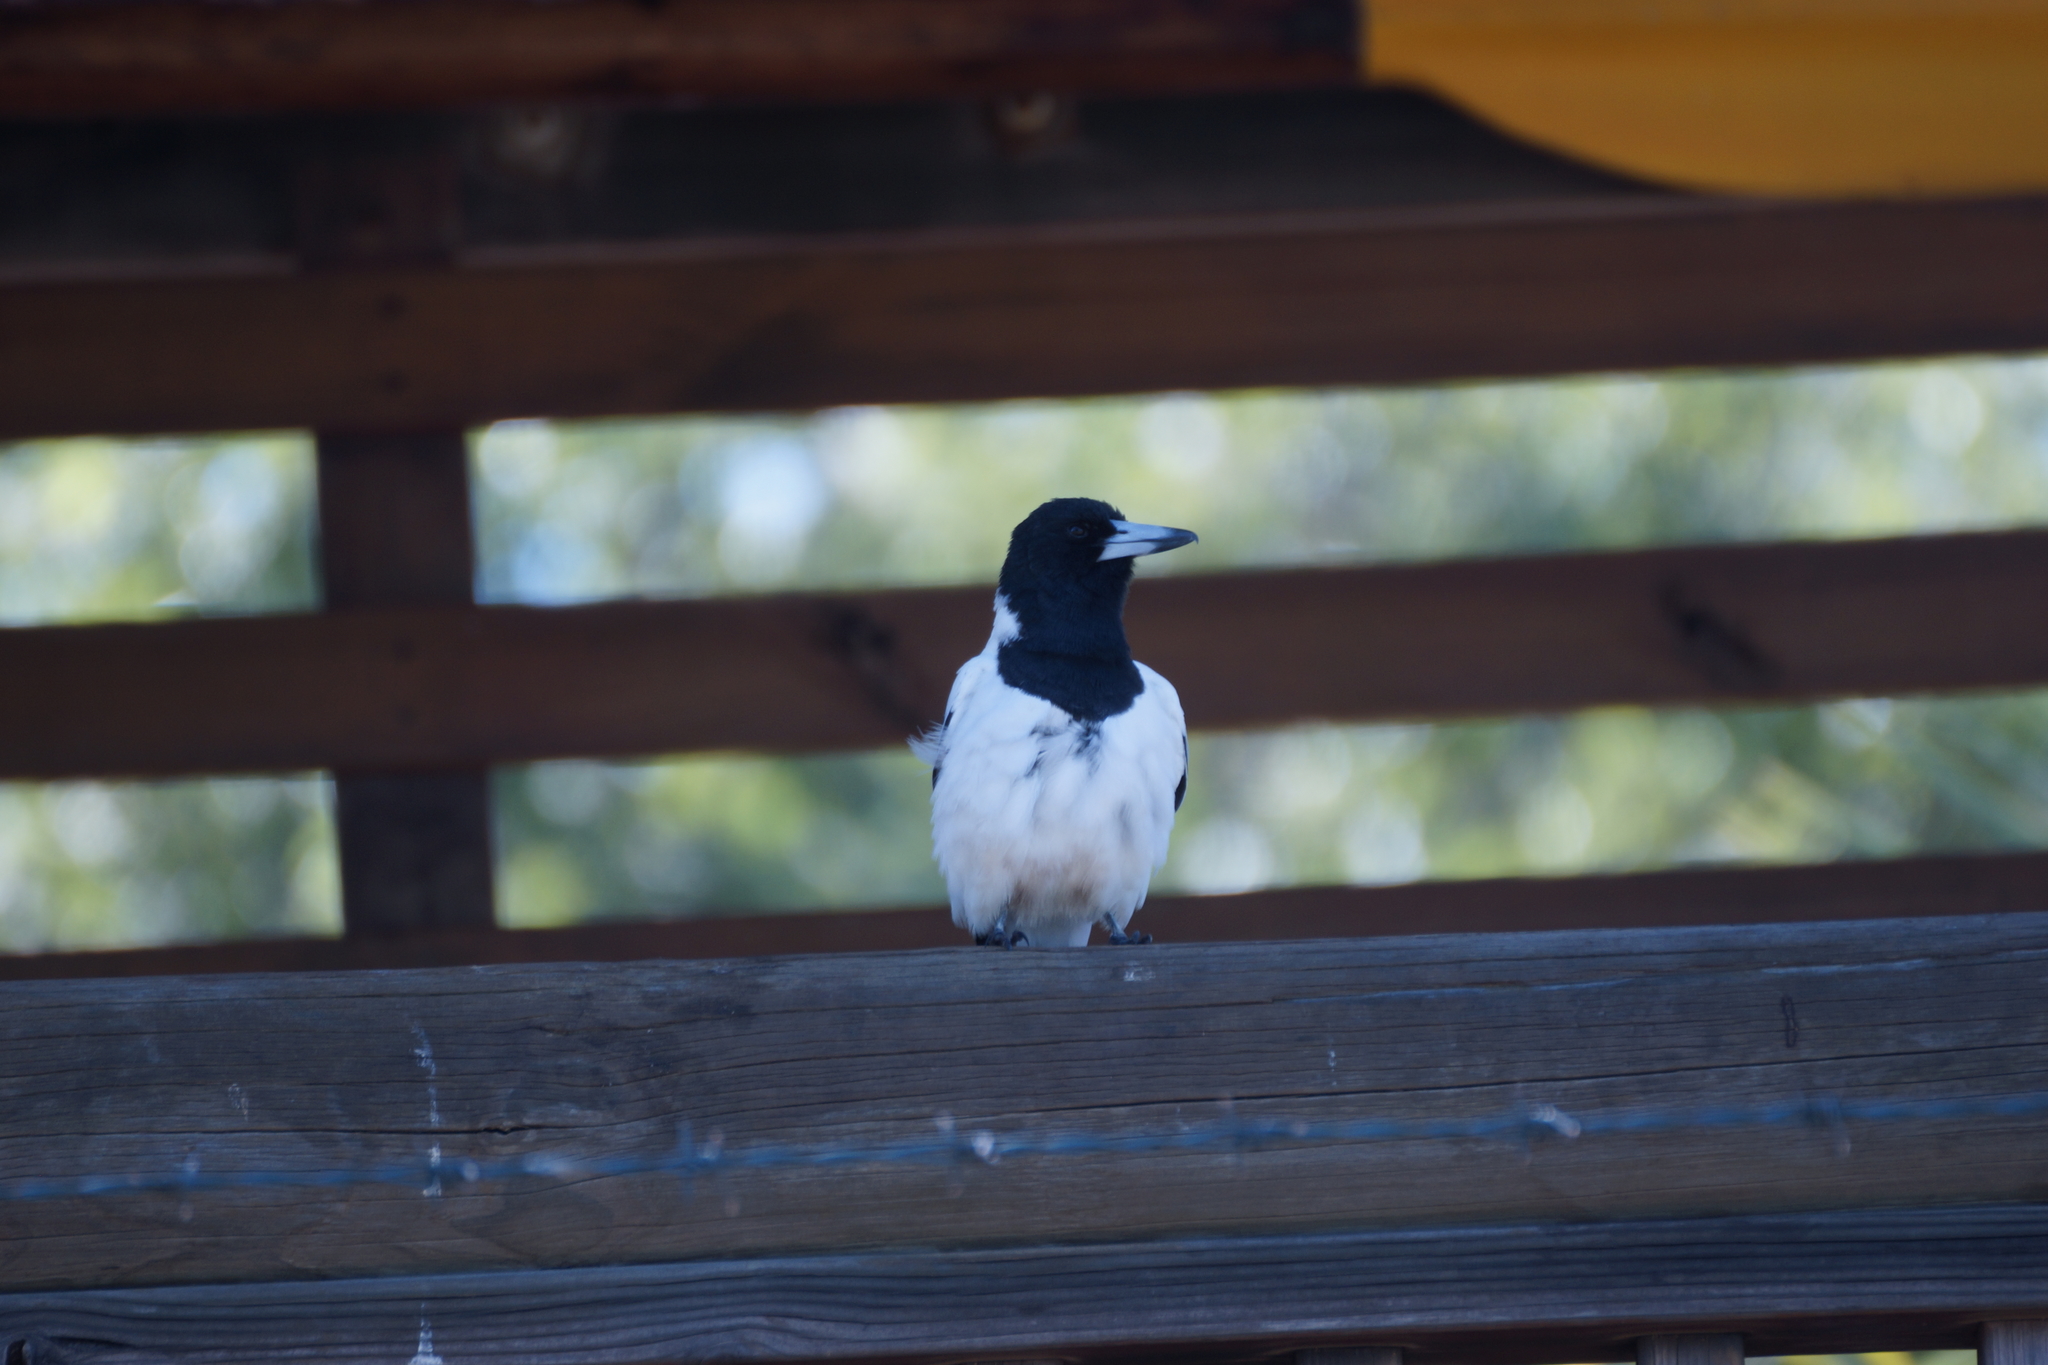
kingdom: Animalia
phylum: Chordata
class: Aves
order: Passeriformes
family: Cracticidae
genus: Cracticus
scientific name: Cracticus nigrogularis
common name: Pied butcherbird
